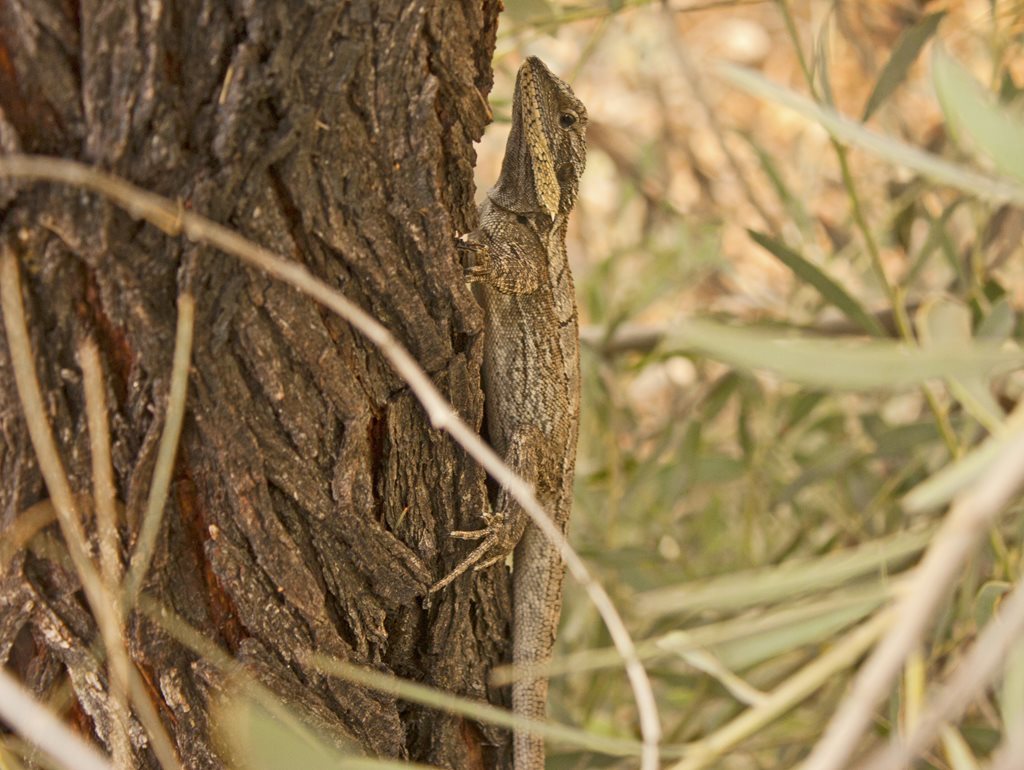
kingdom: Animalia
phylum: Chordata
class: Squamata
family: Agamidae
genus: Amphibolurus
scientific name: Amphibolurus burnsi
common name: Burn's dragon
